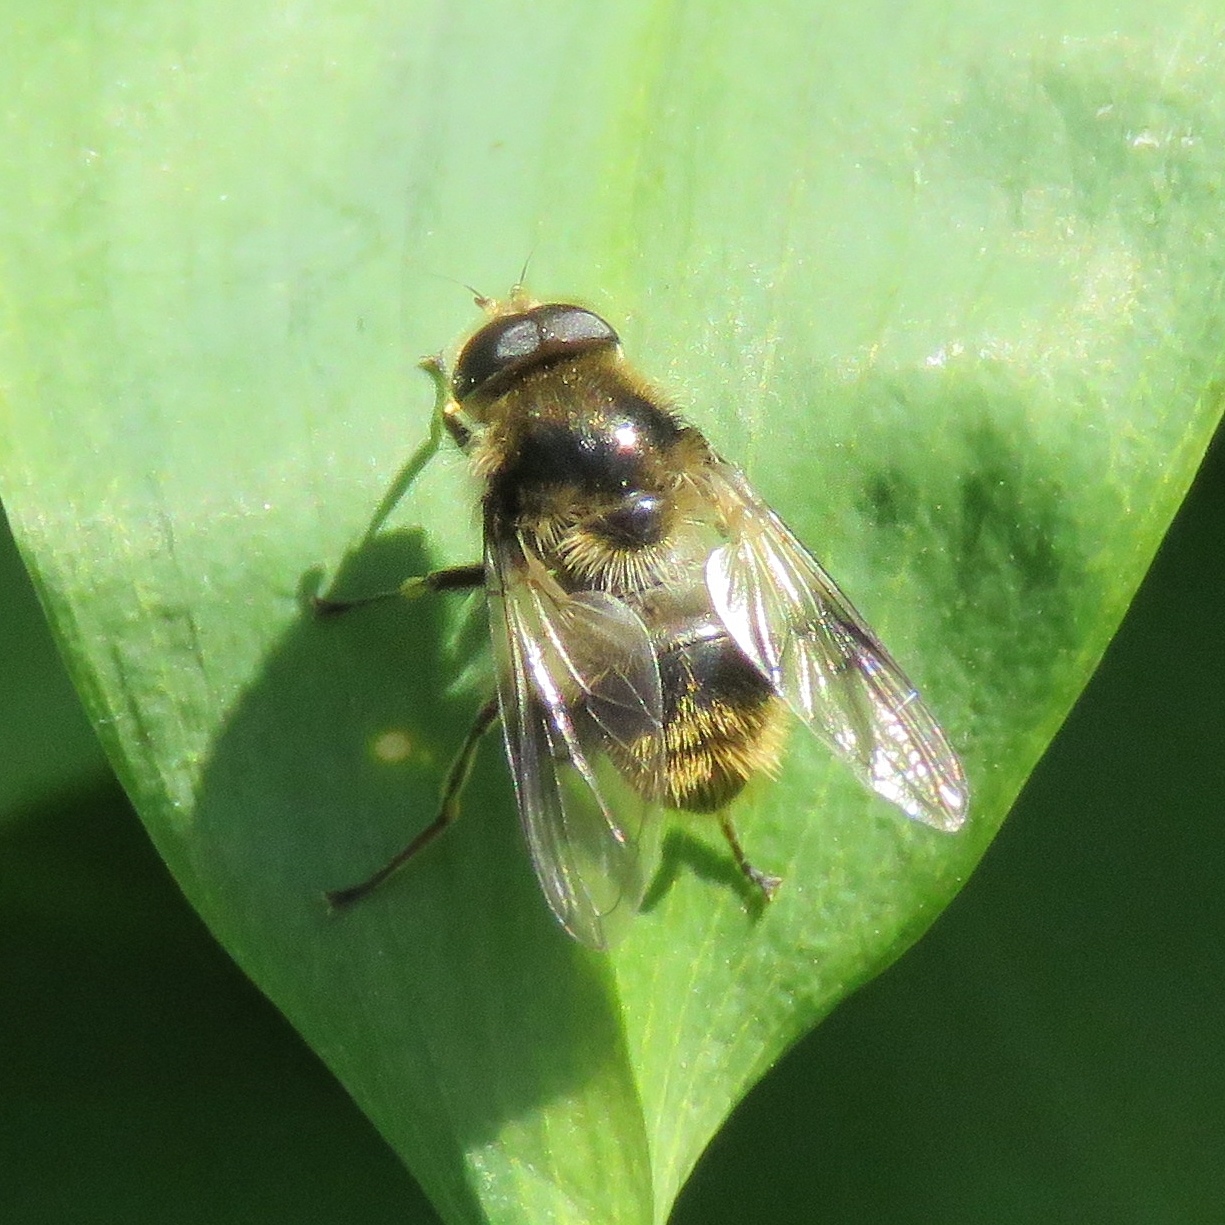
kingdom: Animalia
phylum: Arthropoda
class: Insecta
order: Diptera
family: Syrphidae
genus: Cheilosia
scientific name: Cheilosia illustrata
